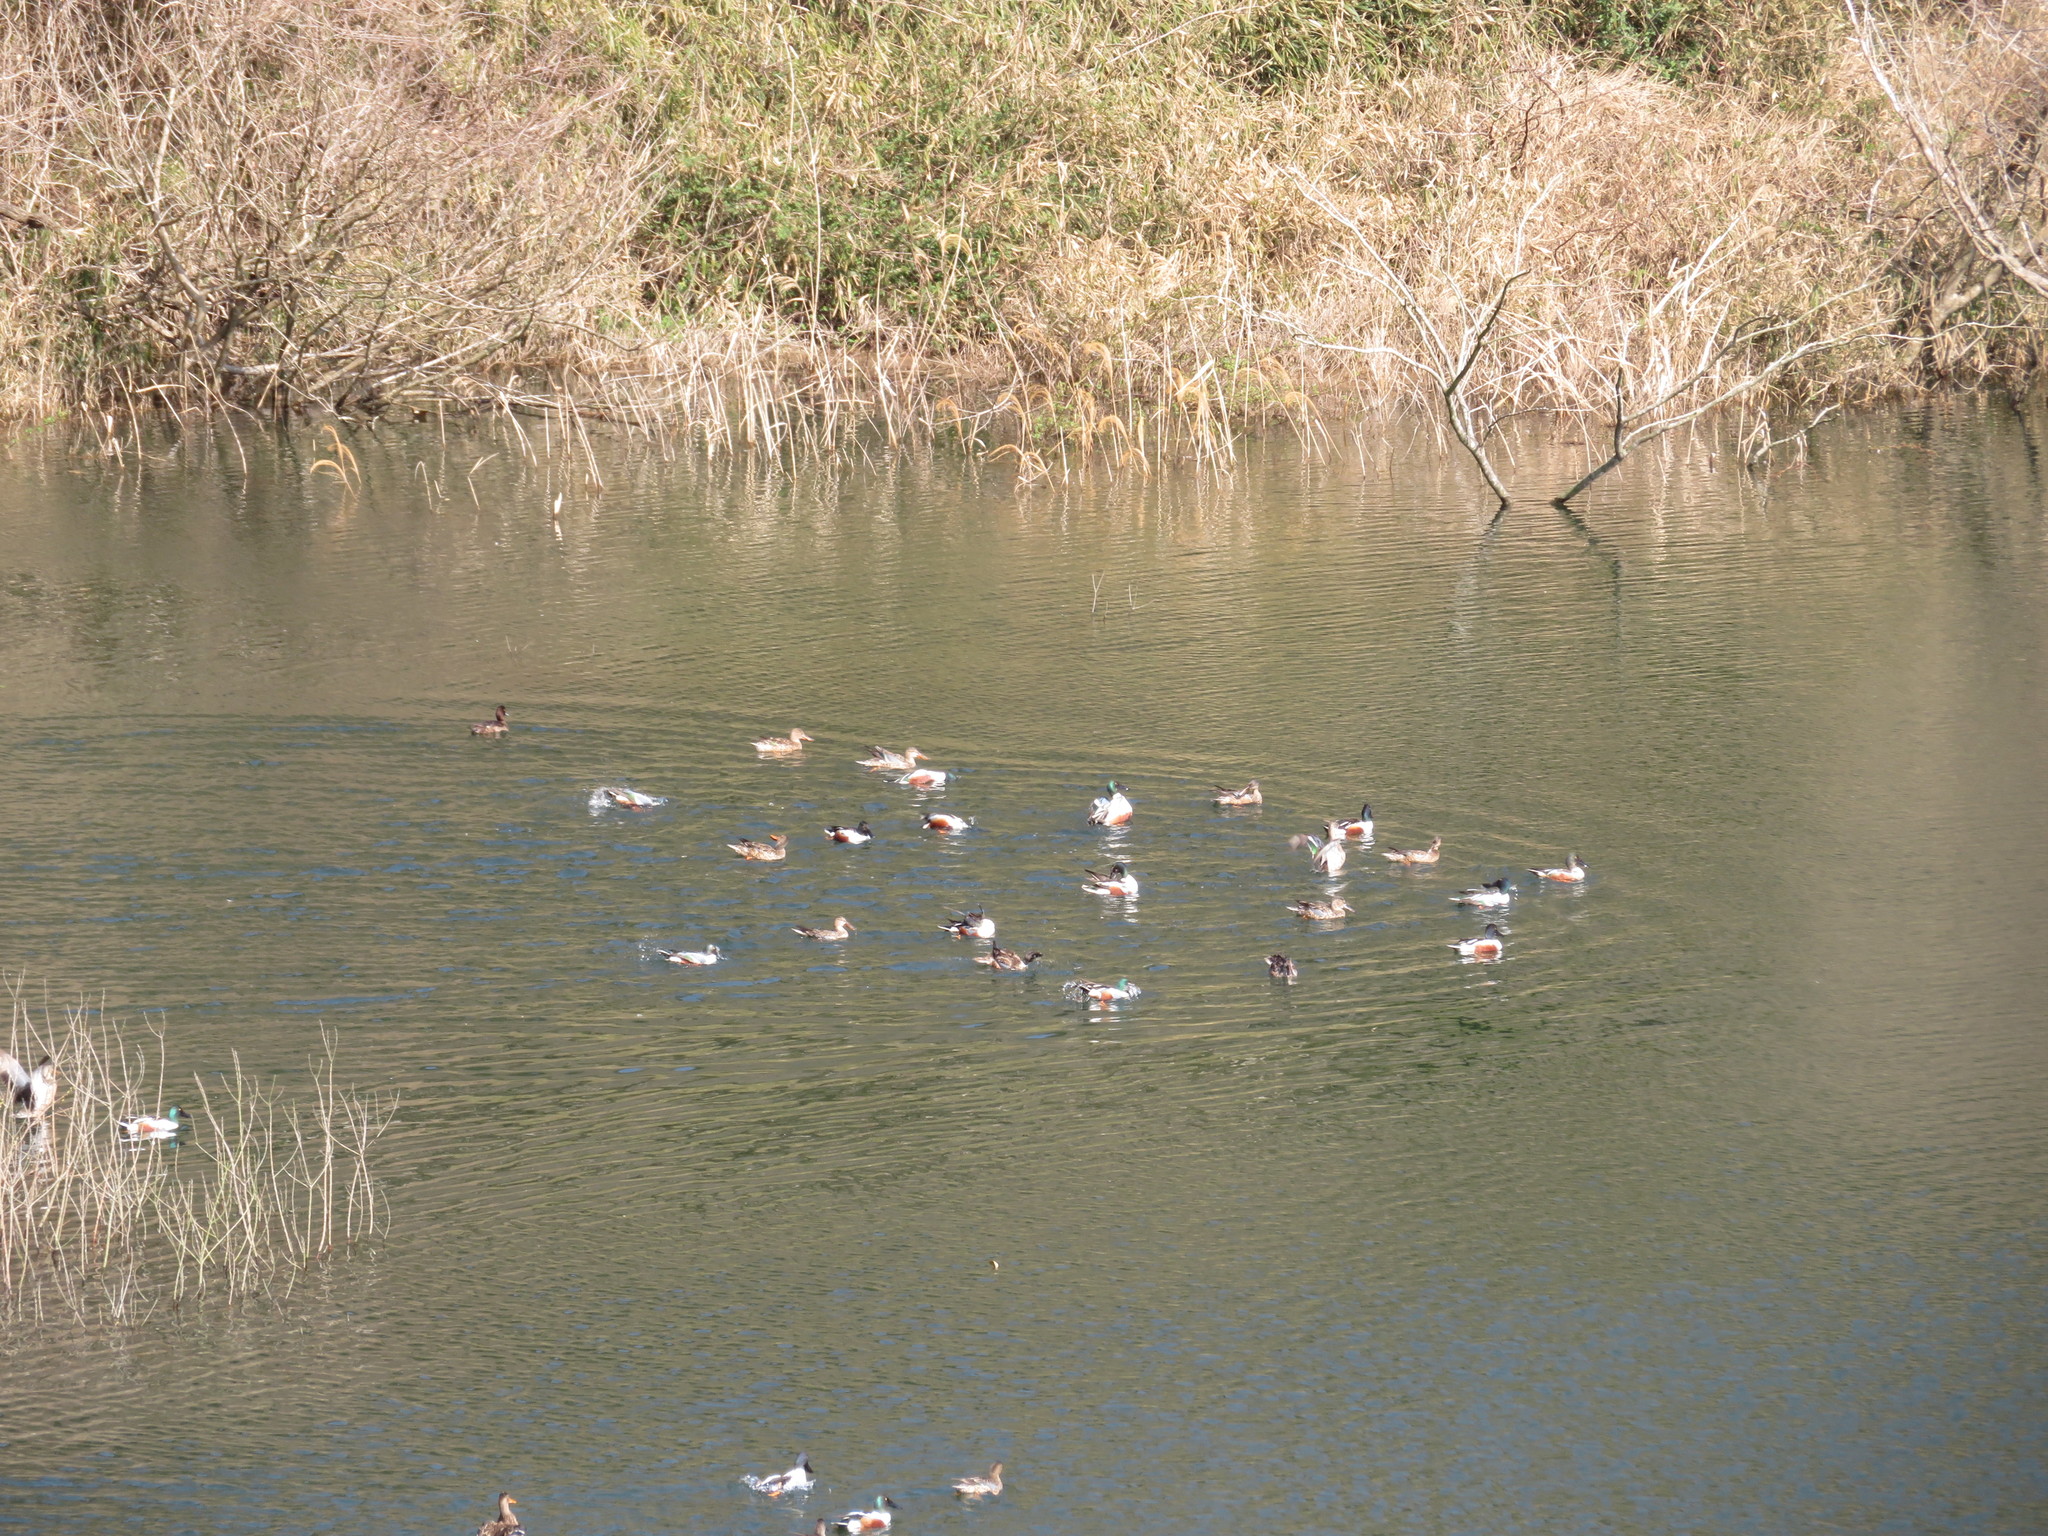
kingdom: Animalia
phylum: Chordata
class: Aves
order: Anseriformes
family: Anatidae
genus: Spatula
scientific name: Spatula clypeata
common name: Northern shoveler
